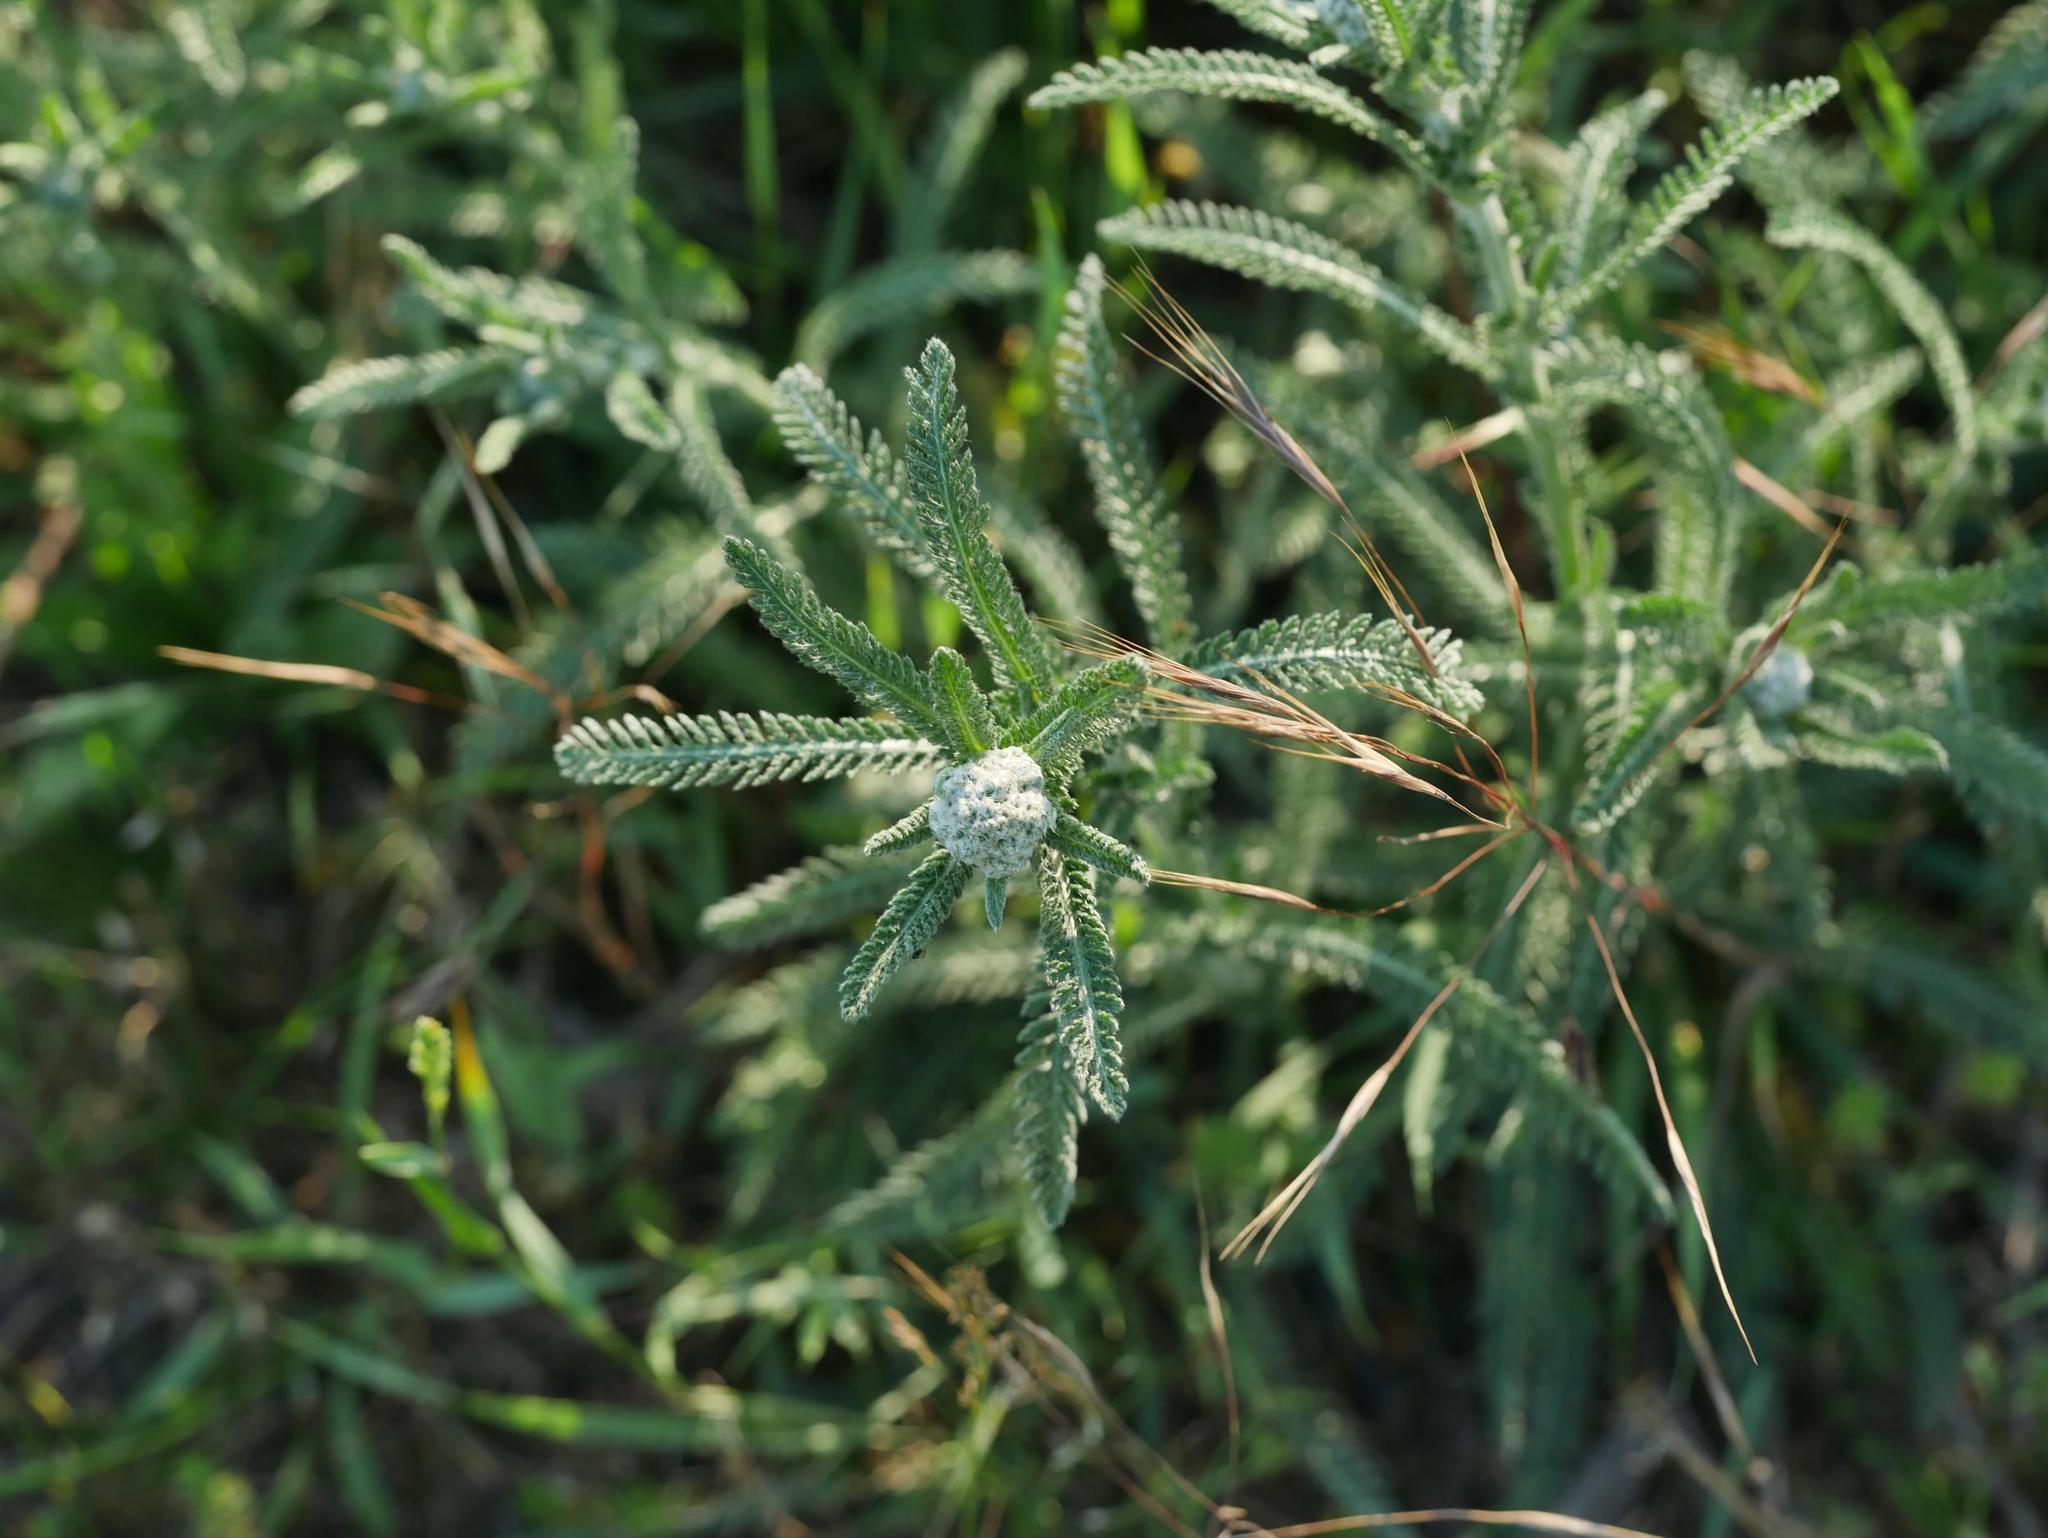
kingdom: Plantae
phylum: Tracheophyta
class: Magnoliopsida
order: Asterales
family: Asteraceae
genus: Achillea
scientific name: Achillea millefolium
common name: Yarrow
